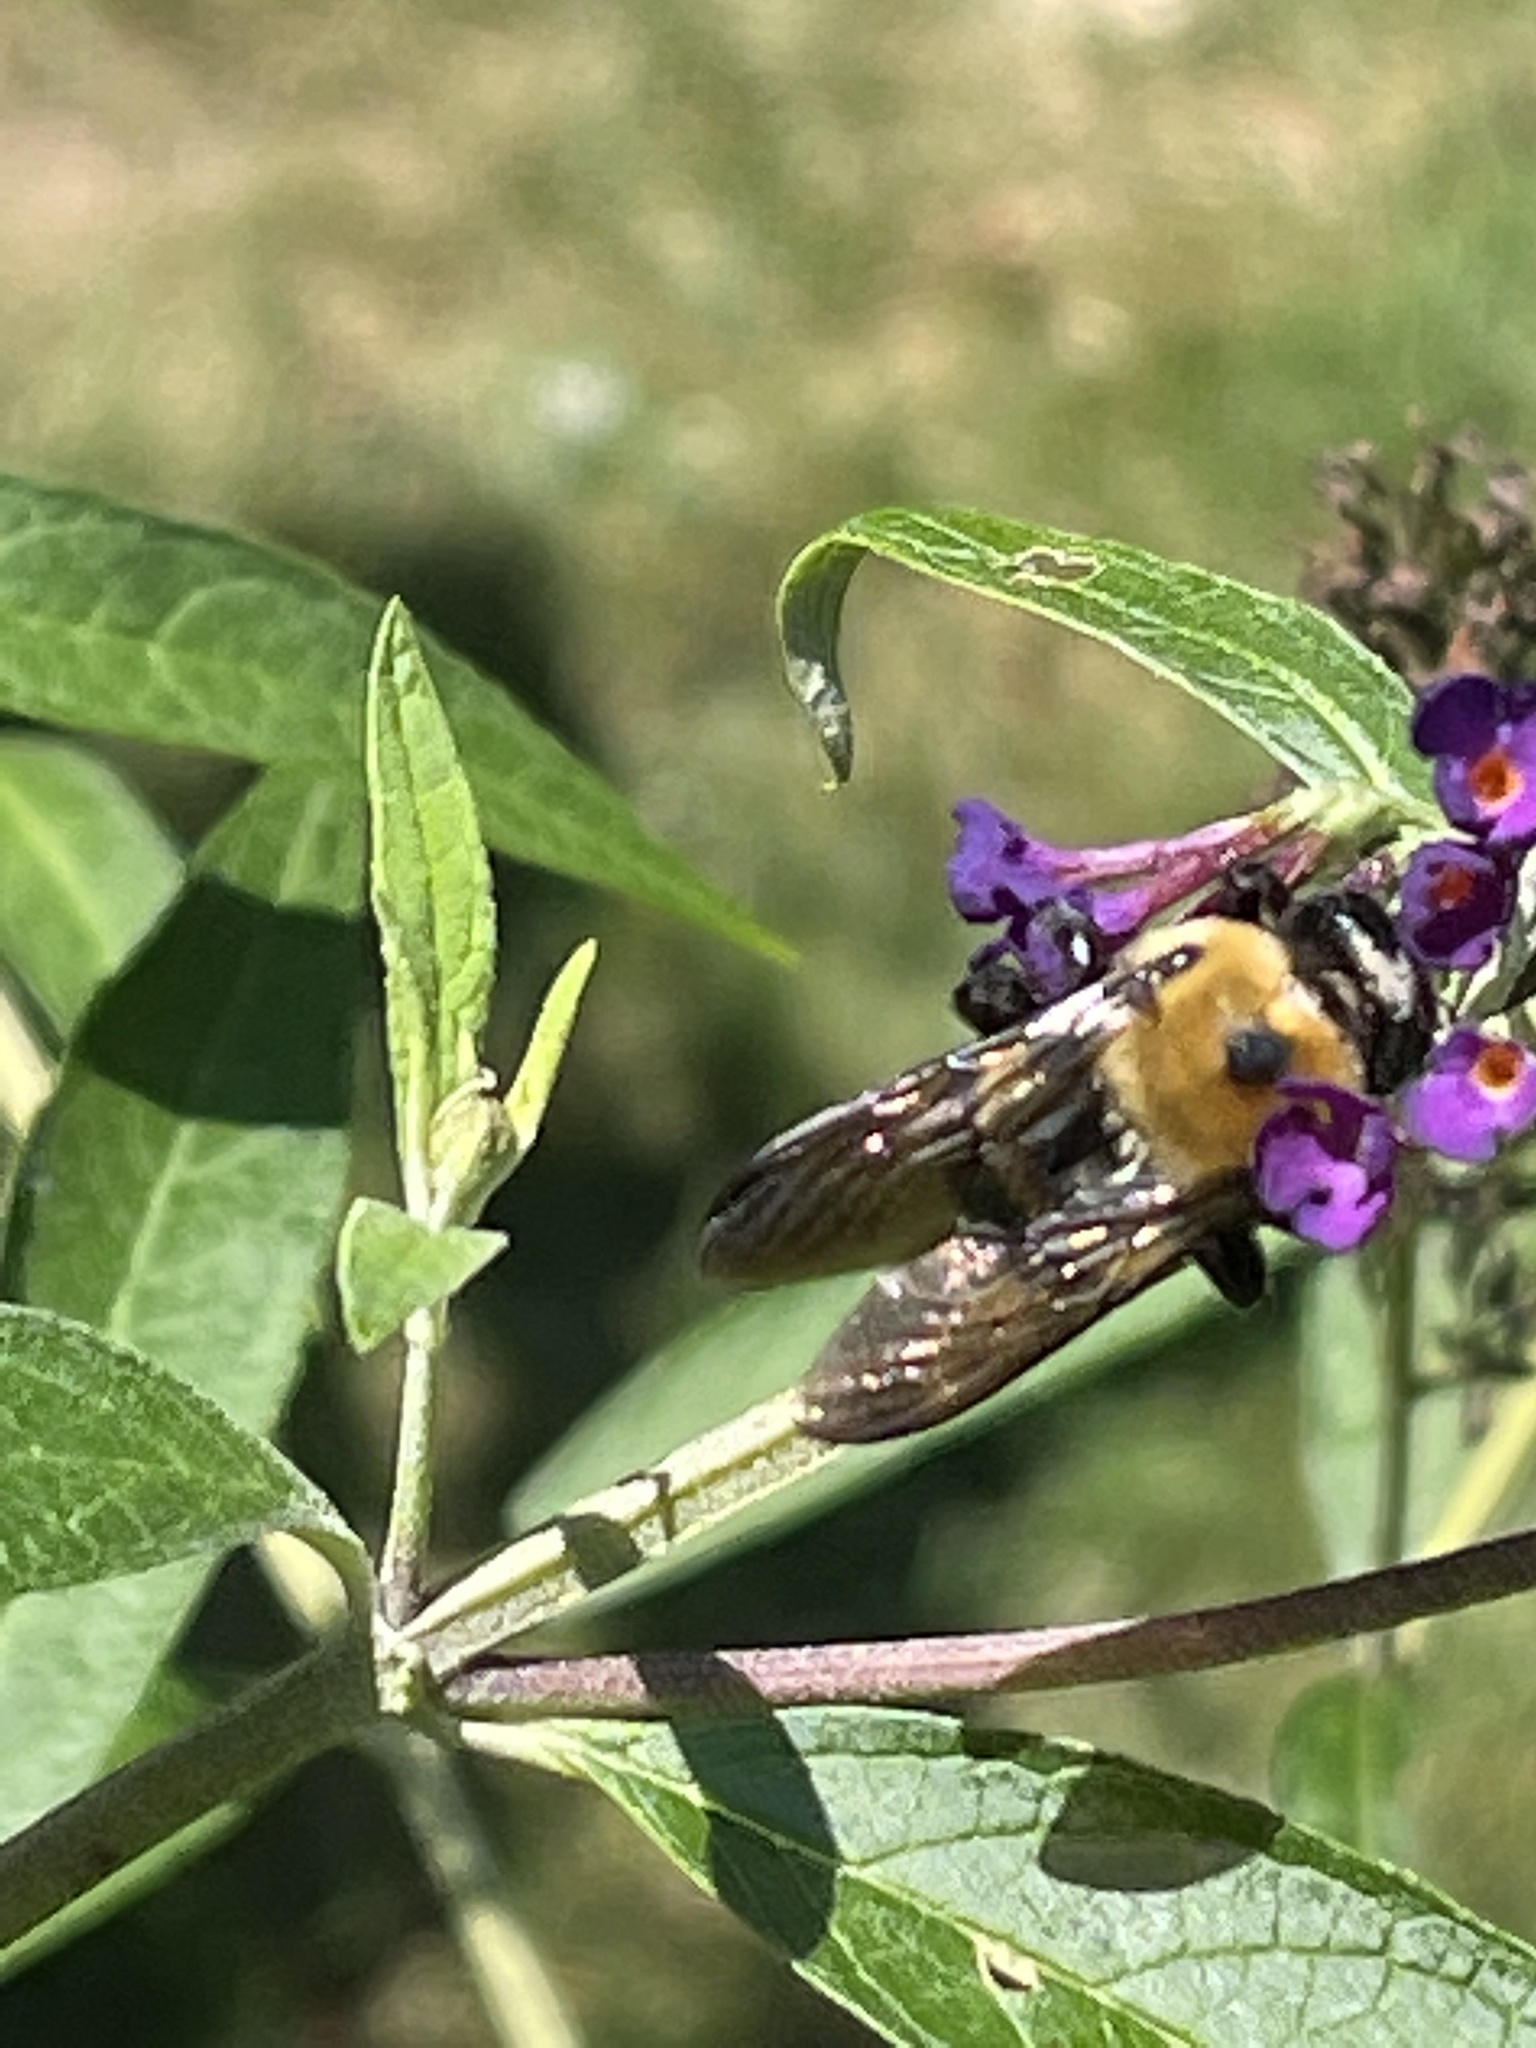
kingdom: Animalia
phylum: Arthropoda
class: Insecta
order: Hymenoptera
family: Apidae
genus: Xylocopa
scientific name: Xylocopa virginica
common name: Carpenter bee
